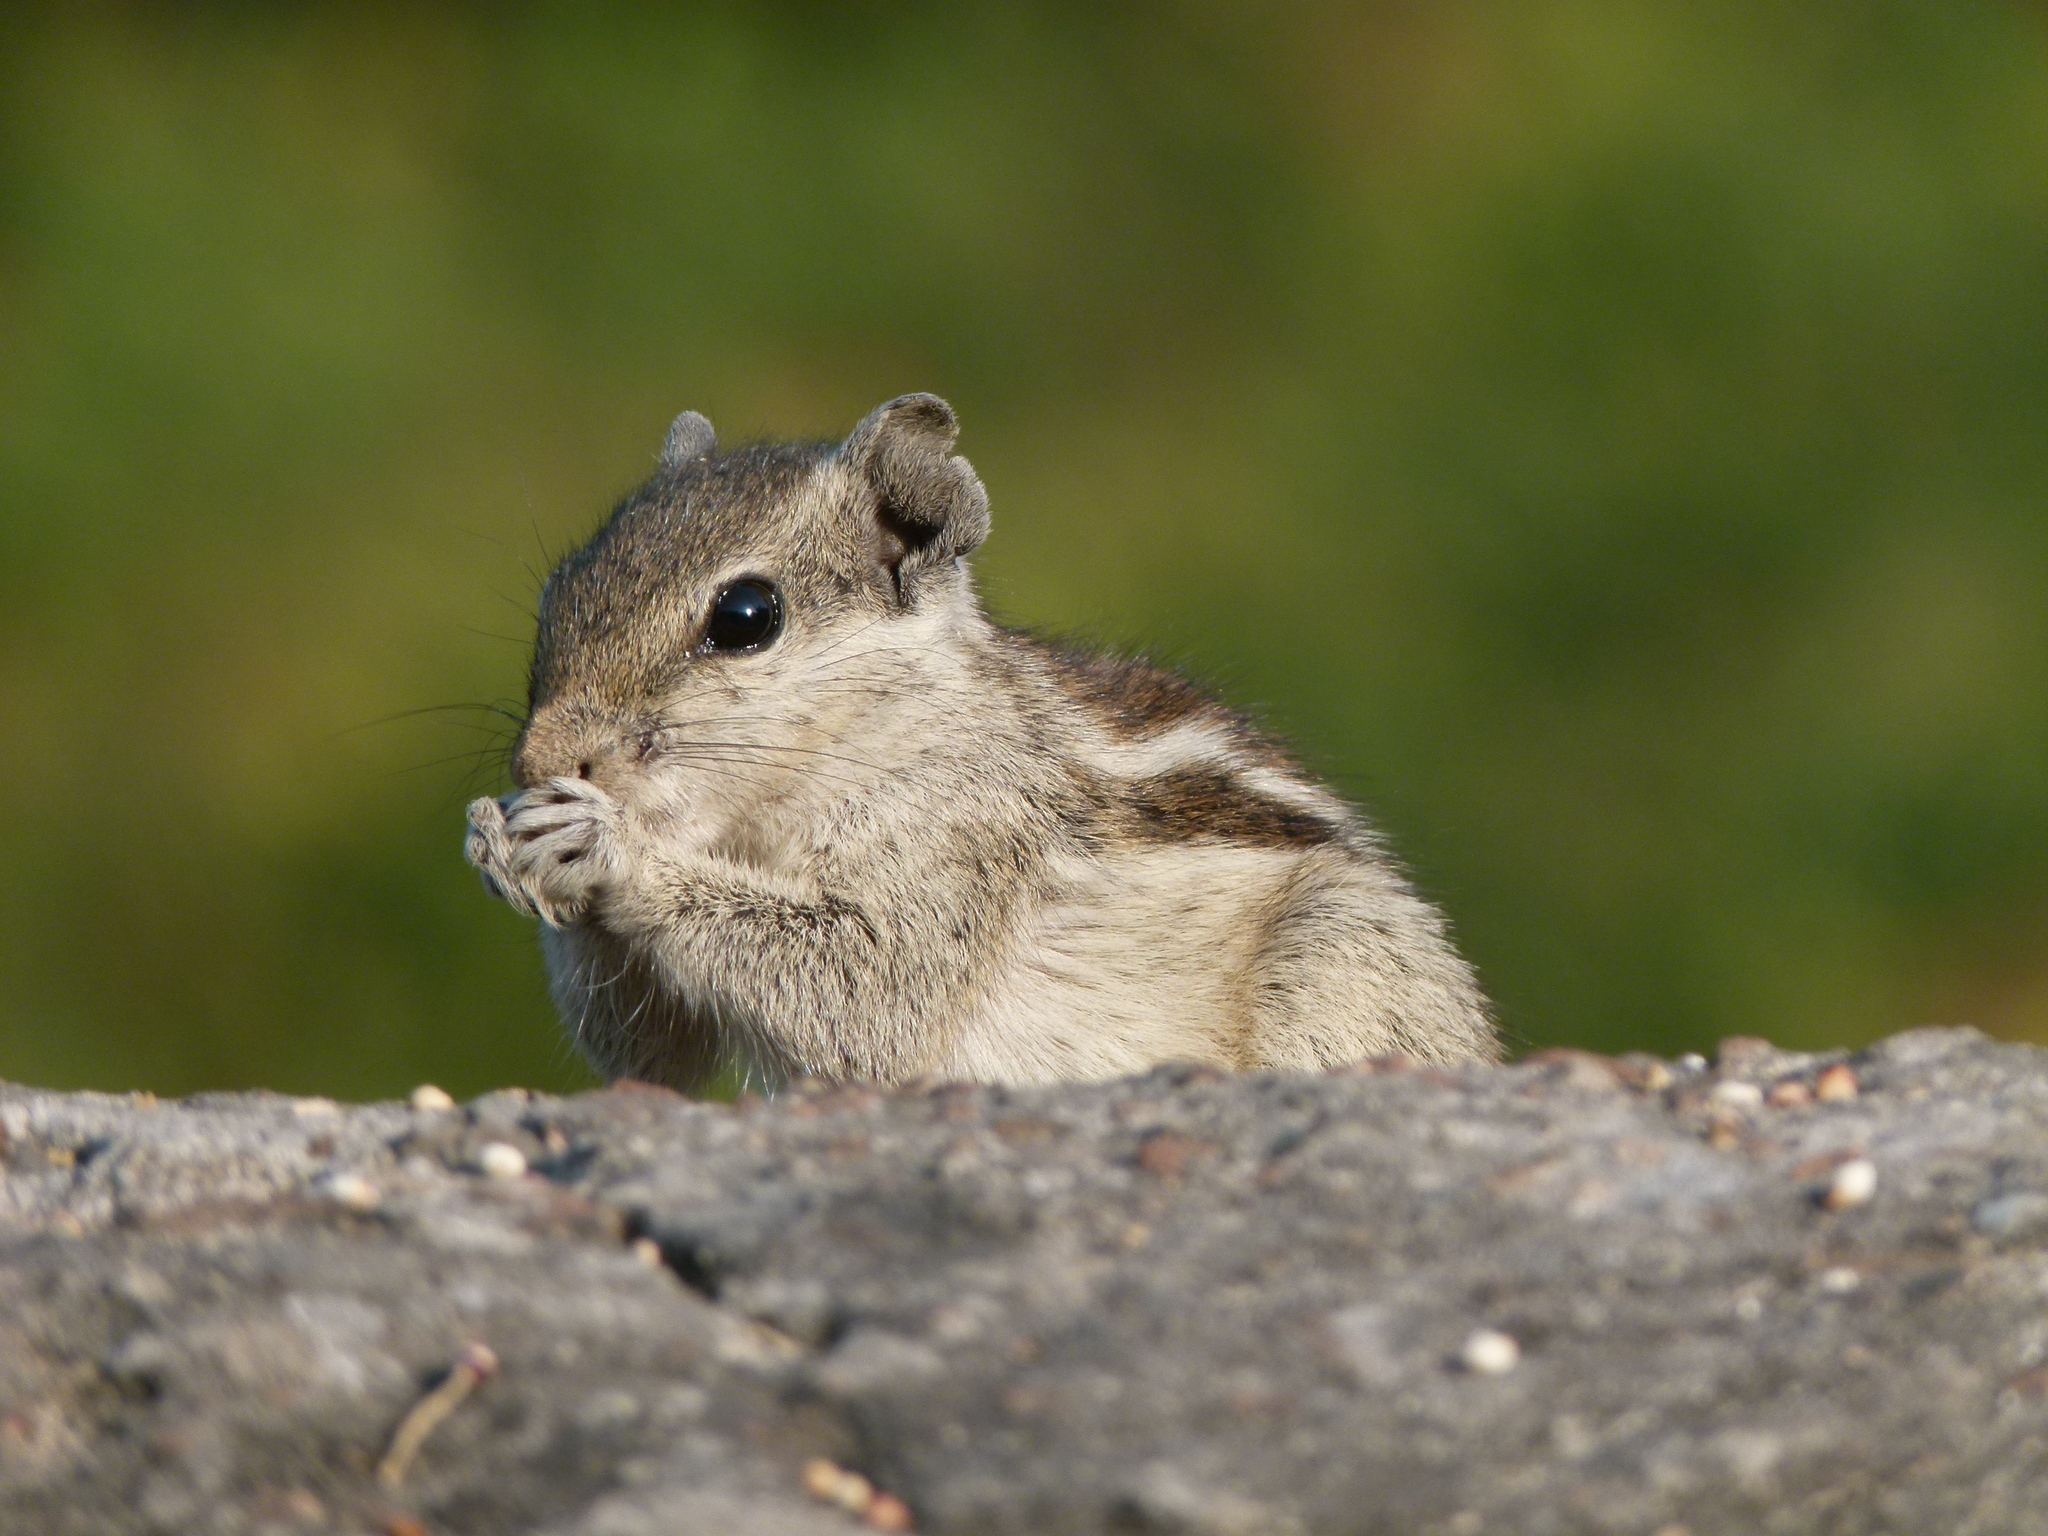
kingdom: Animalia
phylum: Chordata
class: Mammalia
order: Rodentia
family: Sciuridae
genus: Funambulus
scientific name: Funambulus pennantii
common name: Northern palm squirrel
